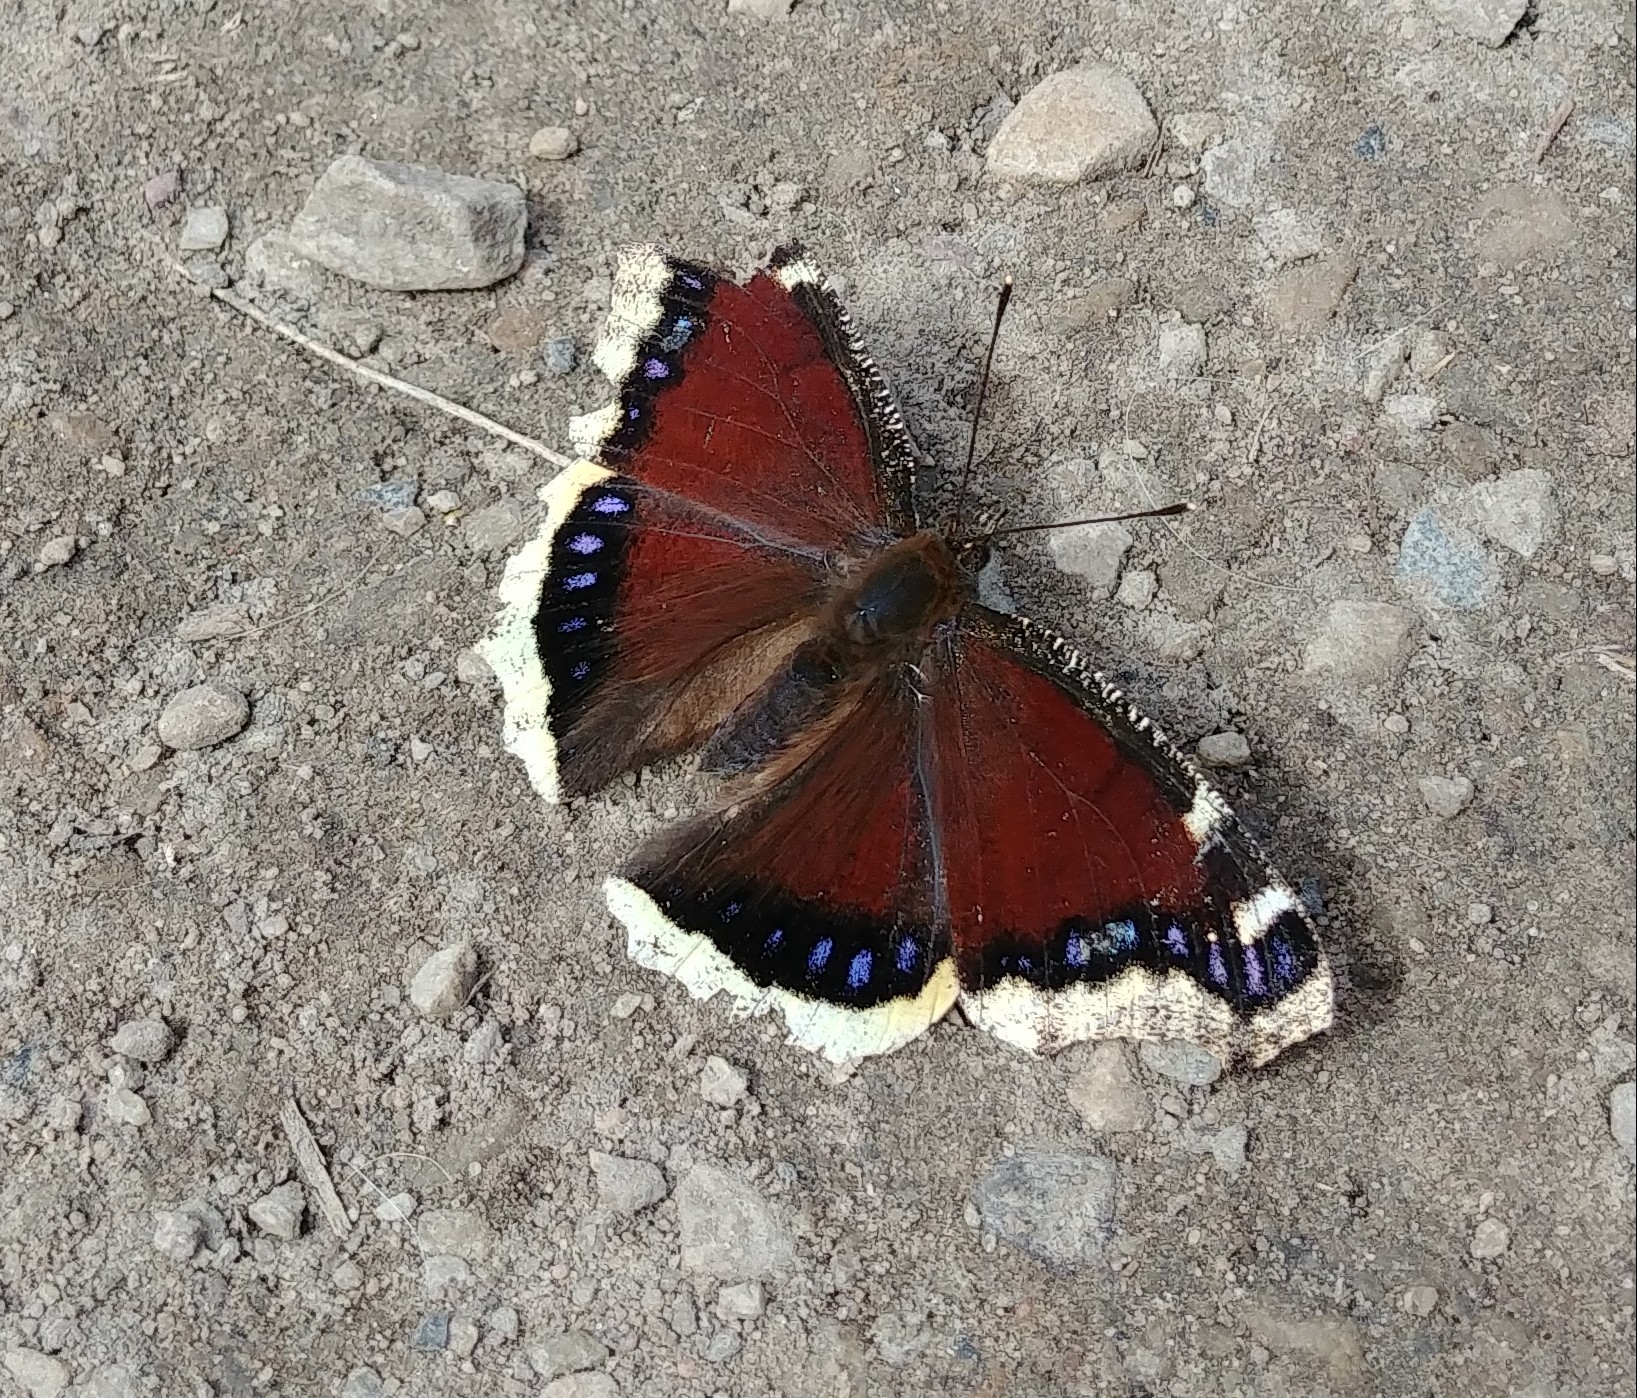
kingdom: Animalia
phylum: Arthropoda
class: Insecta
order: Lepidoptera
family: Nymphalidae
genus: Nymphalis
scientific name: Nymphalis antiopa
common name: Camberwell beauty
